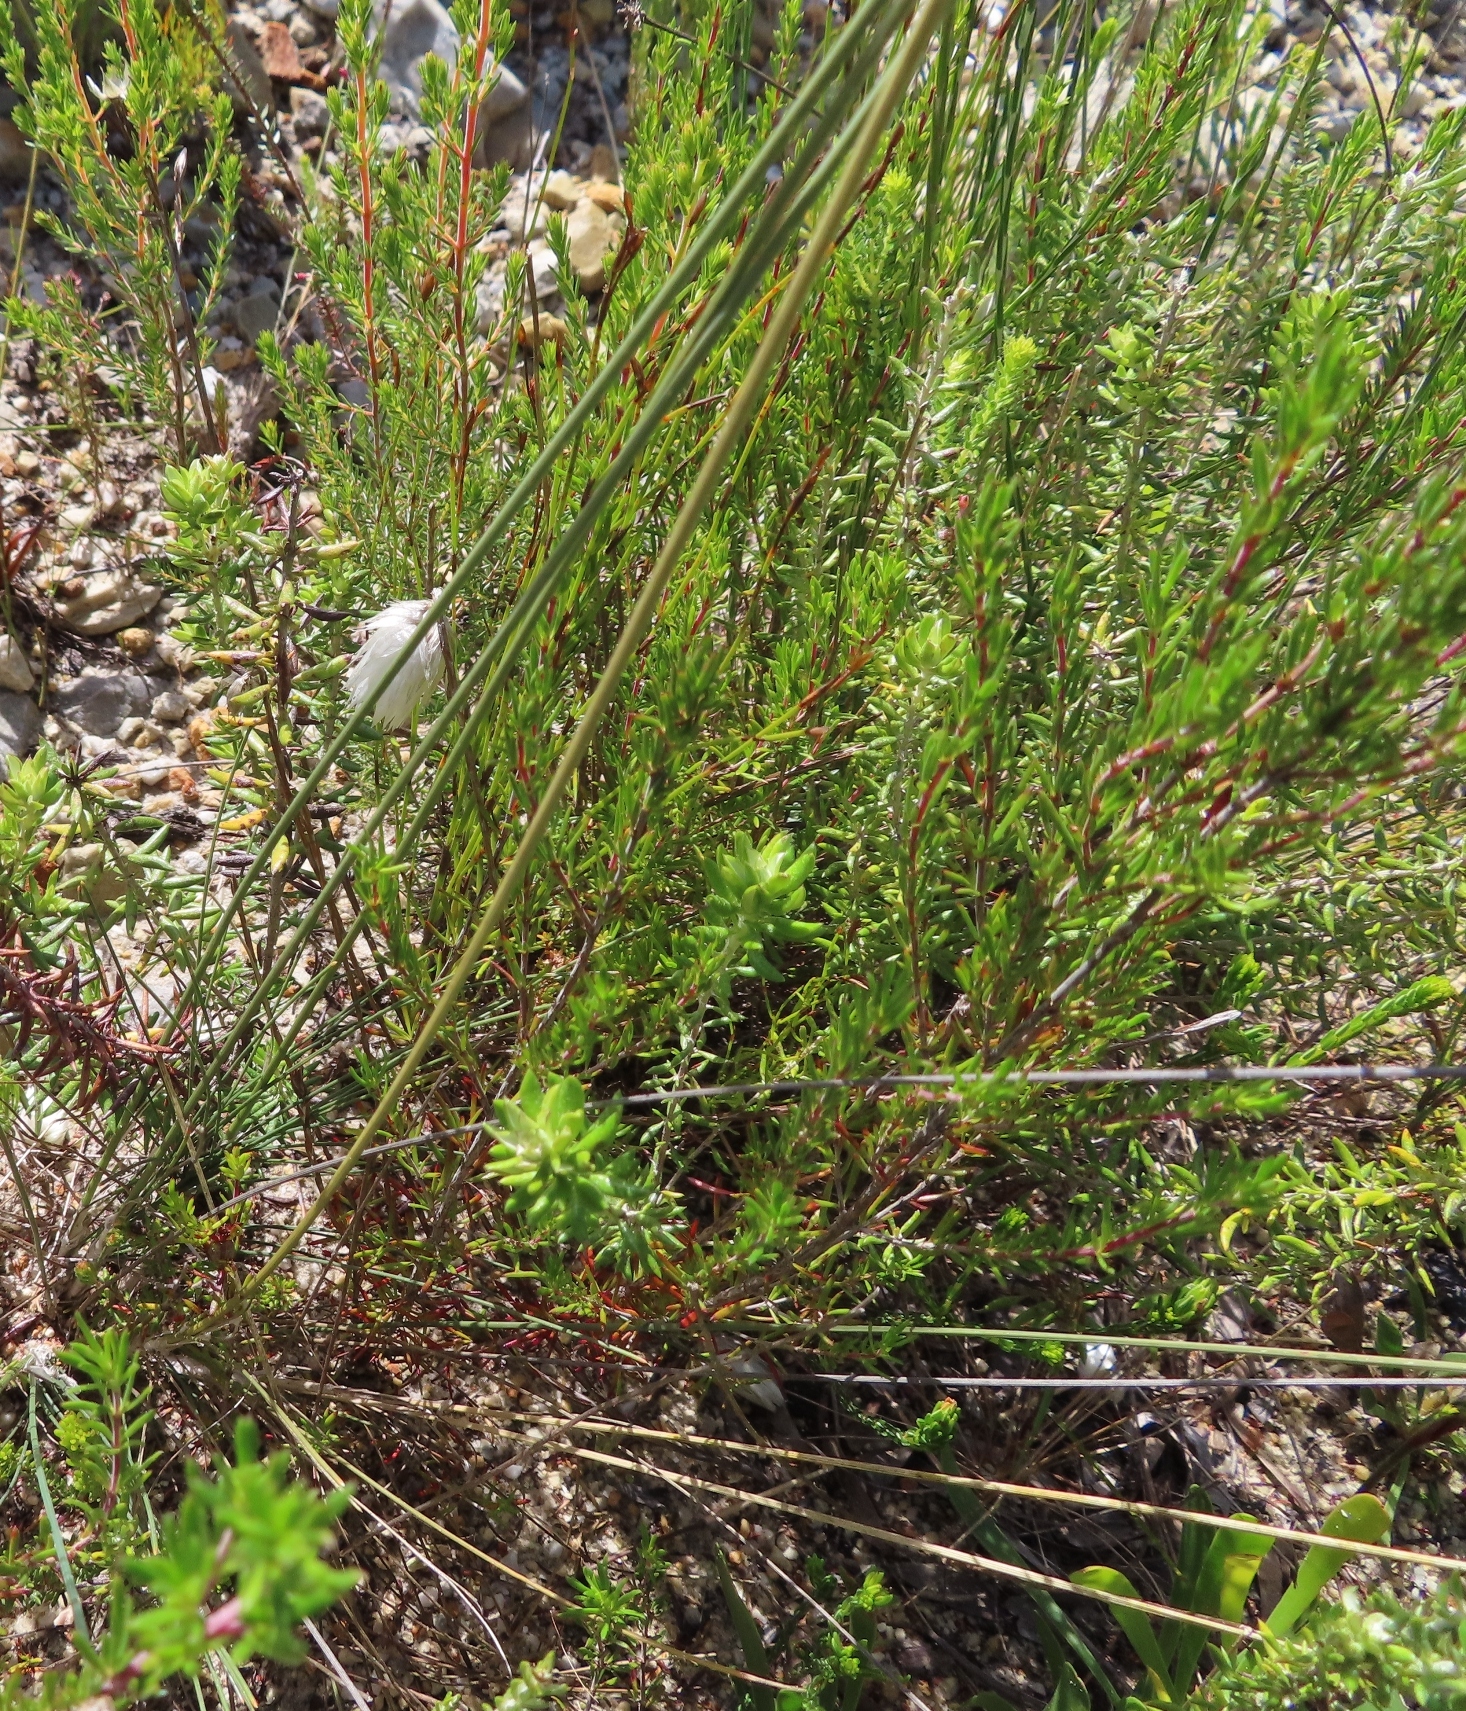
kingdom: Plantae
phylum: Tracheophyta
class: Liliopsida
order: Poales
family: Cyperaceae
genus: Ficinia
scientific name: Ficinia ecklonea
